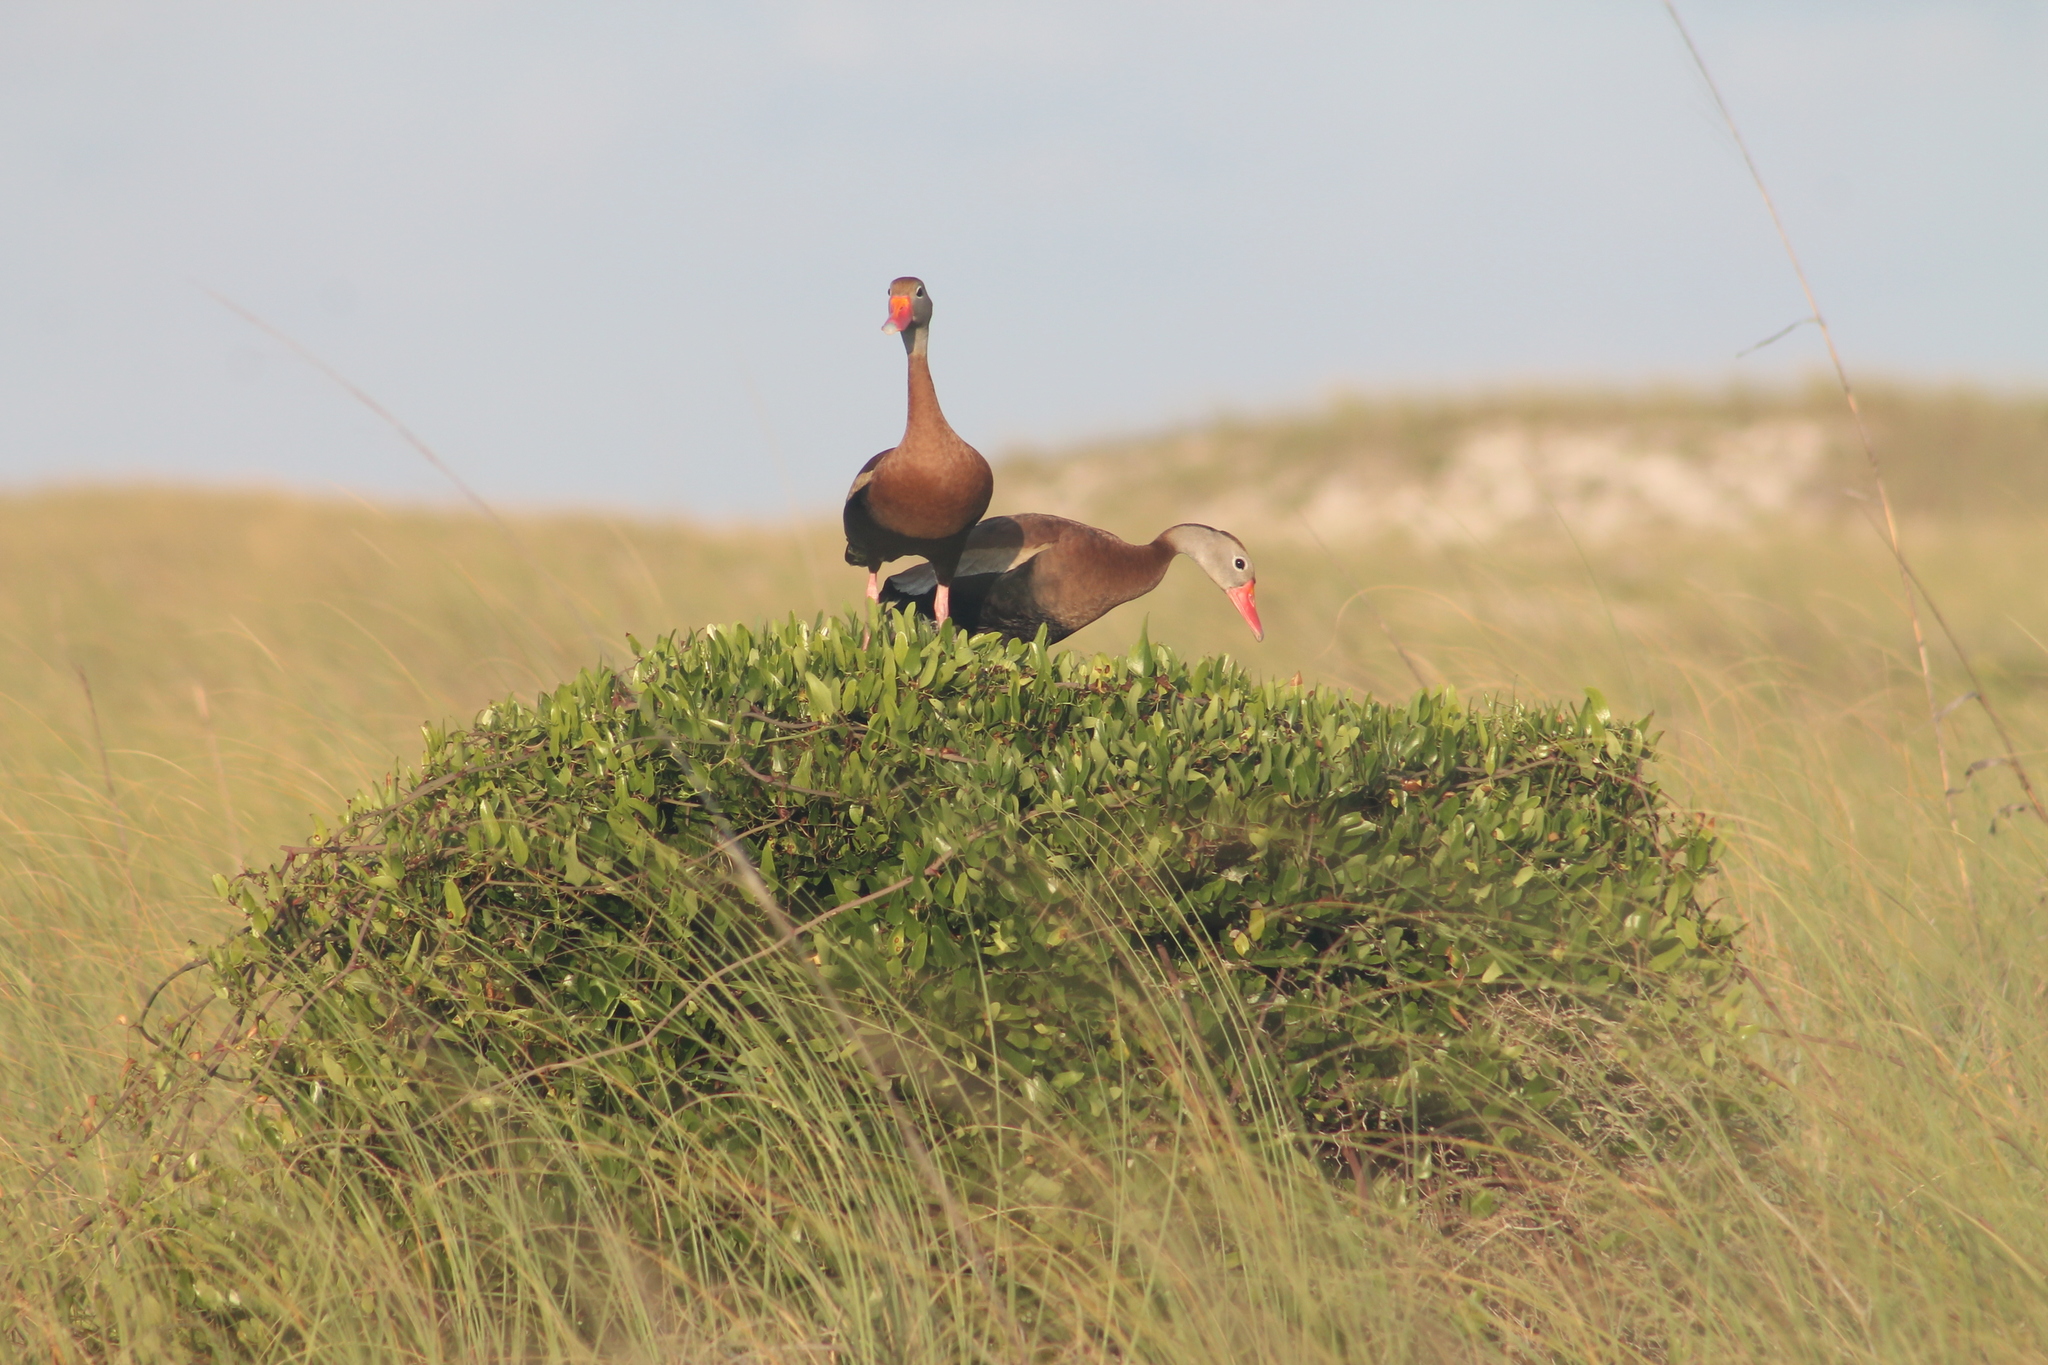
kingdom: Animalia
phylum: Chordata
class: Aves
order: Anseriformes
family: Anatidae
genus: Dendrocygna
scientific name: Dendrocygna autumnalis
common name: Black-bellied whistling duck
